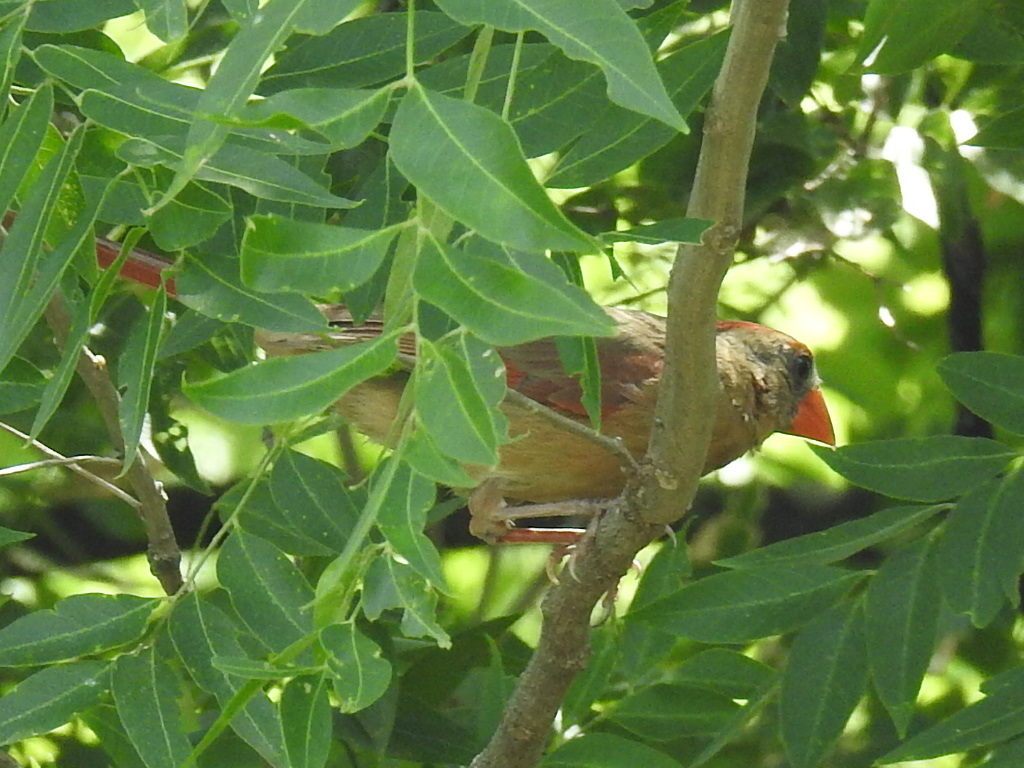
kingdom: Animalia
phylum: Chordata
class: Aves
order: Passeriformes
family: Cardinalidae
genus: Cardinalis
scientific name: Cardinalis cardinalis
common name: Northern cardinal
